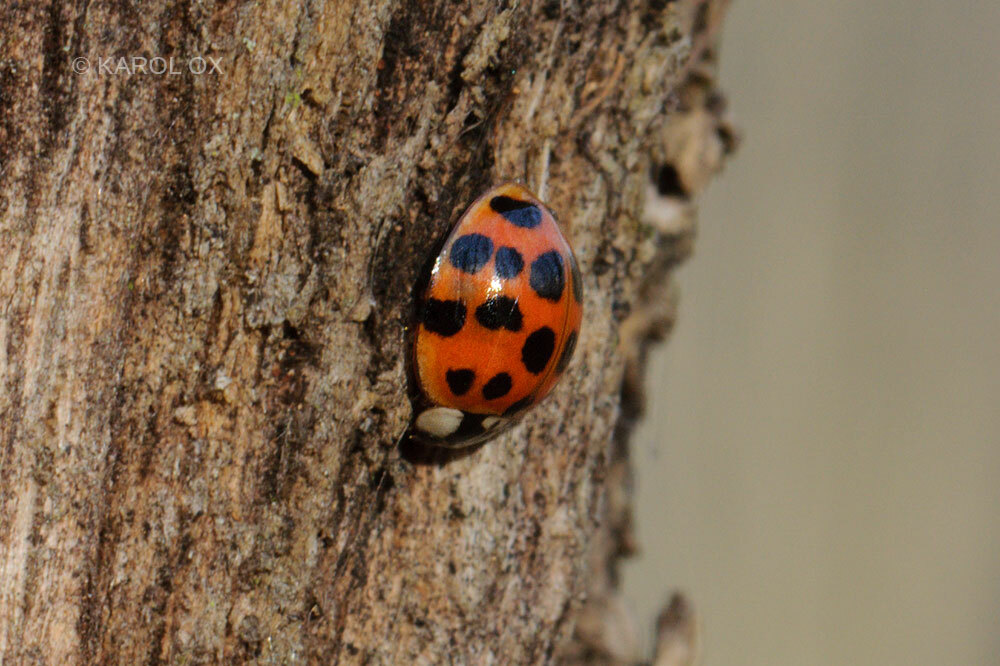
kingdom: Animalia
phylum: Arthropoda
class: Insecta
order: Coleoptera
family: Coccinellidae
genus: Harmonia
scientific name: Harmonia axyridis
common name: Harlequin ladybird
